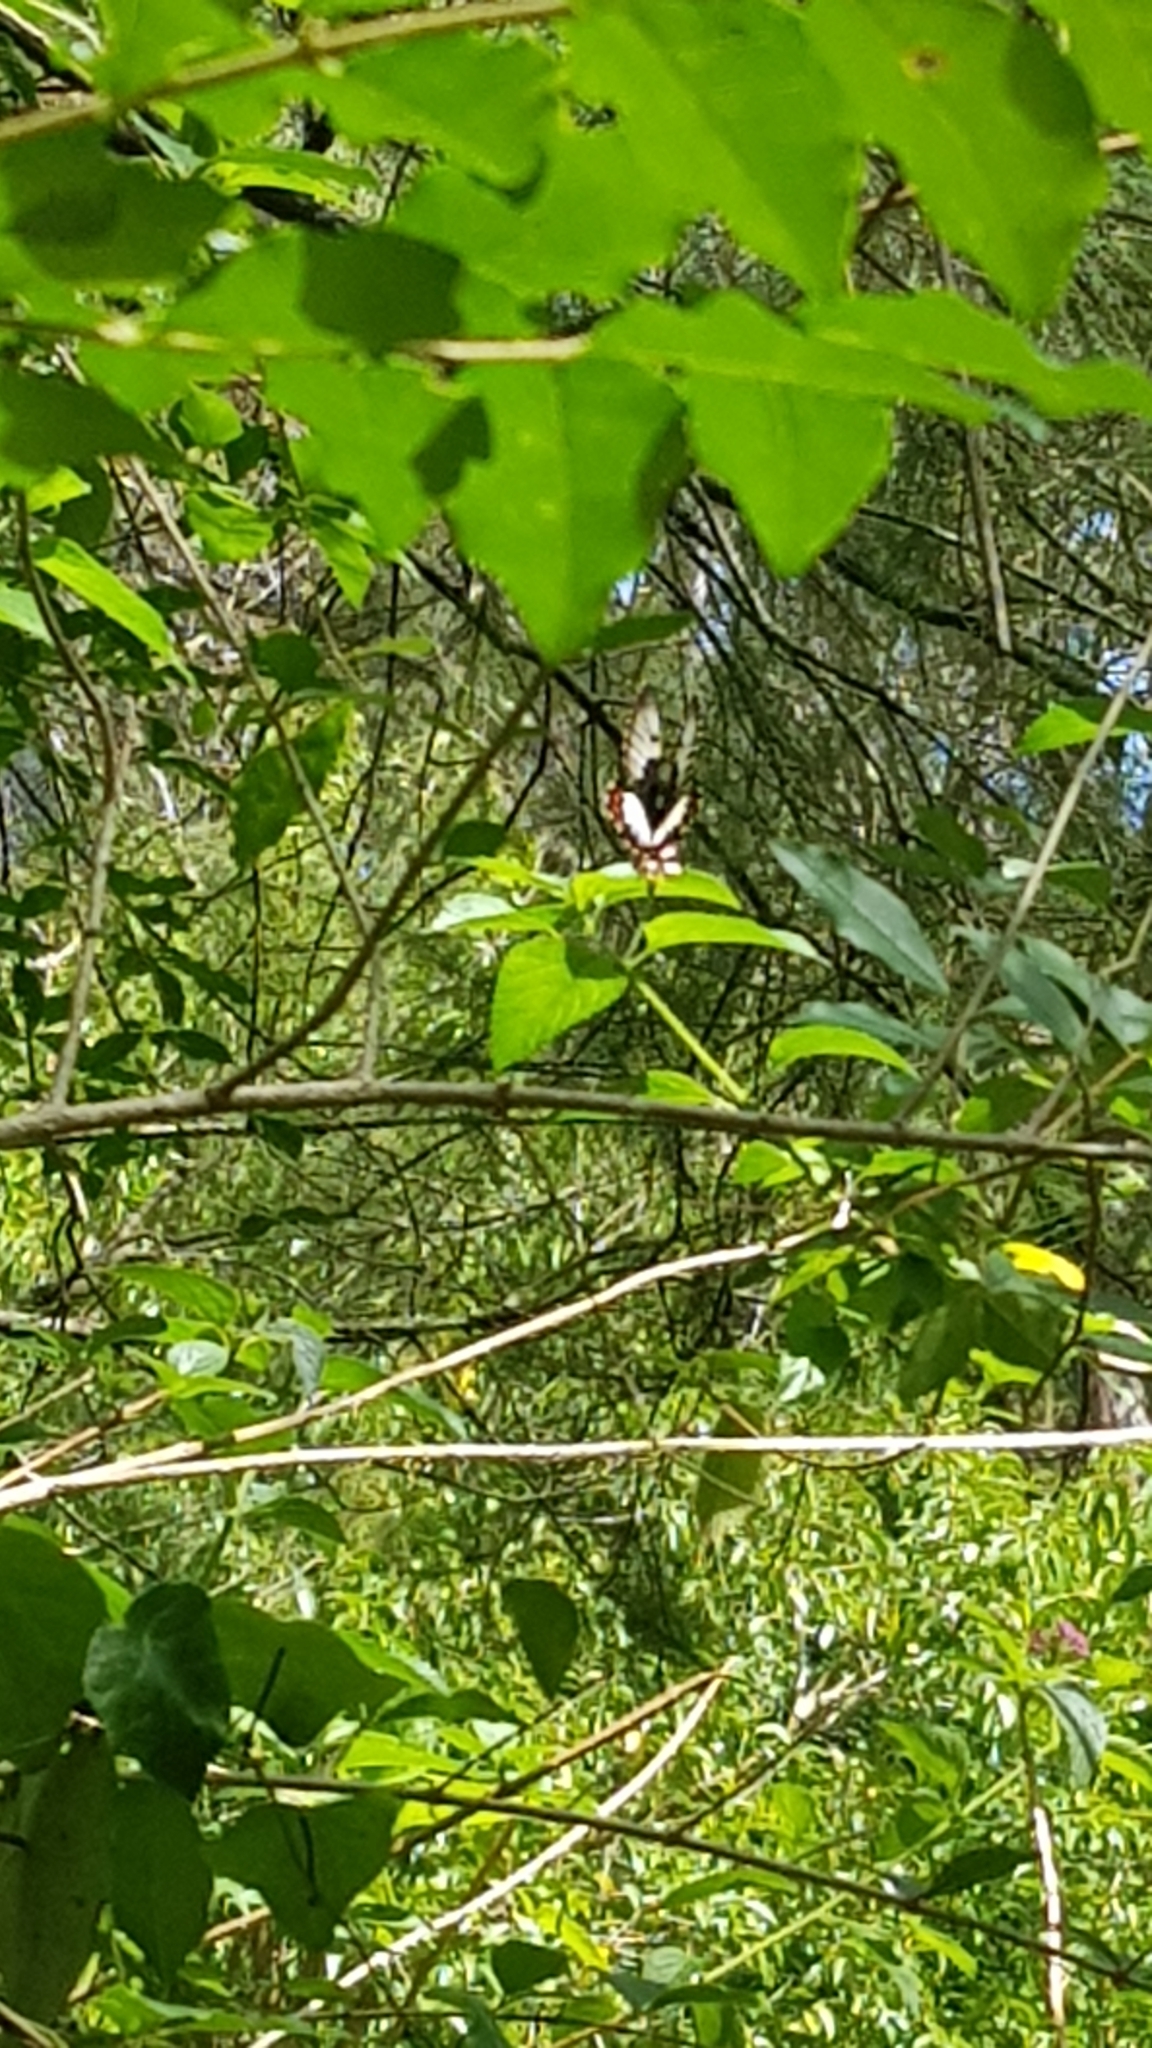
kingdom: Animalia
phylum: Arthropoda
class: Insecta
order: Lepidoptera
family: Papilionidae
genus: Papilio
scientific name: Papilio aegeus
